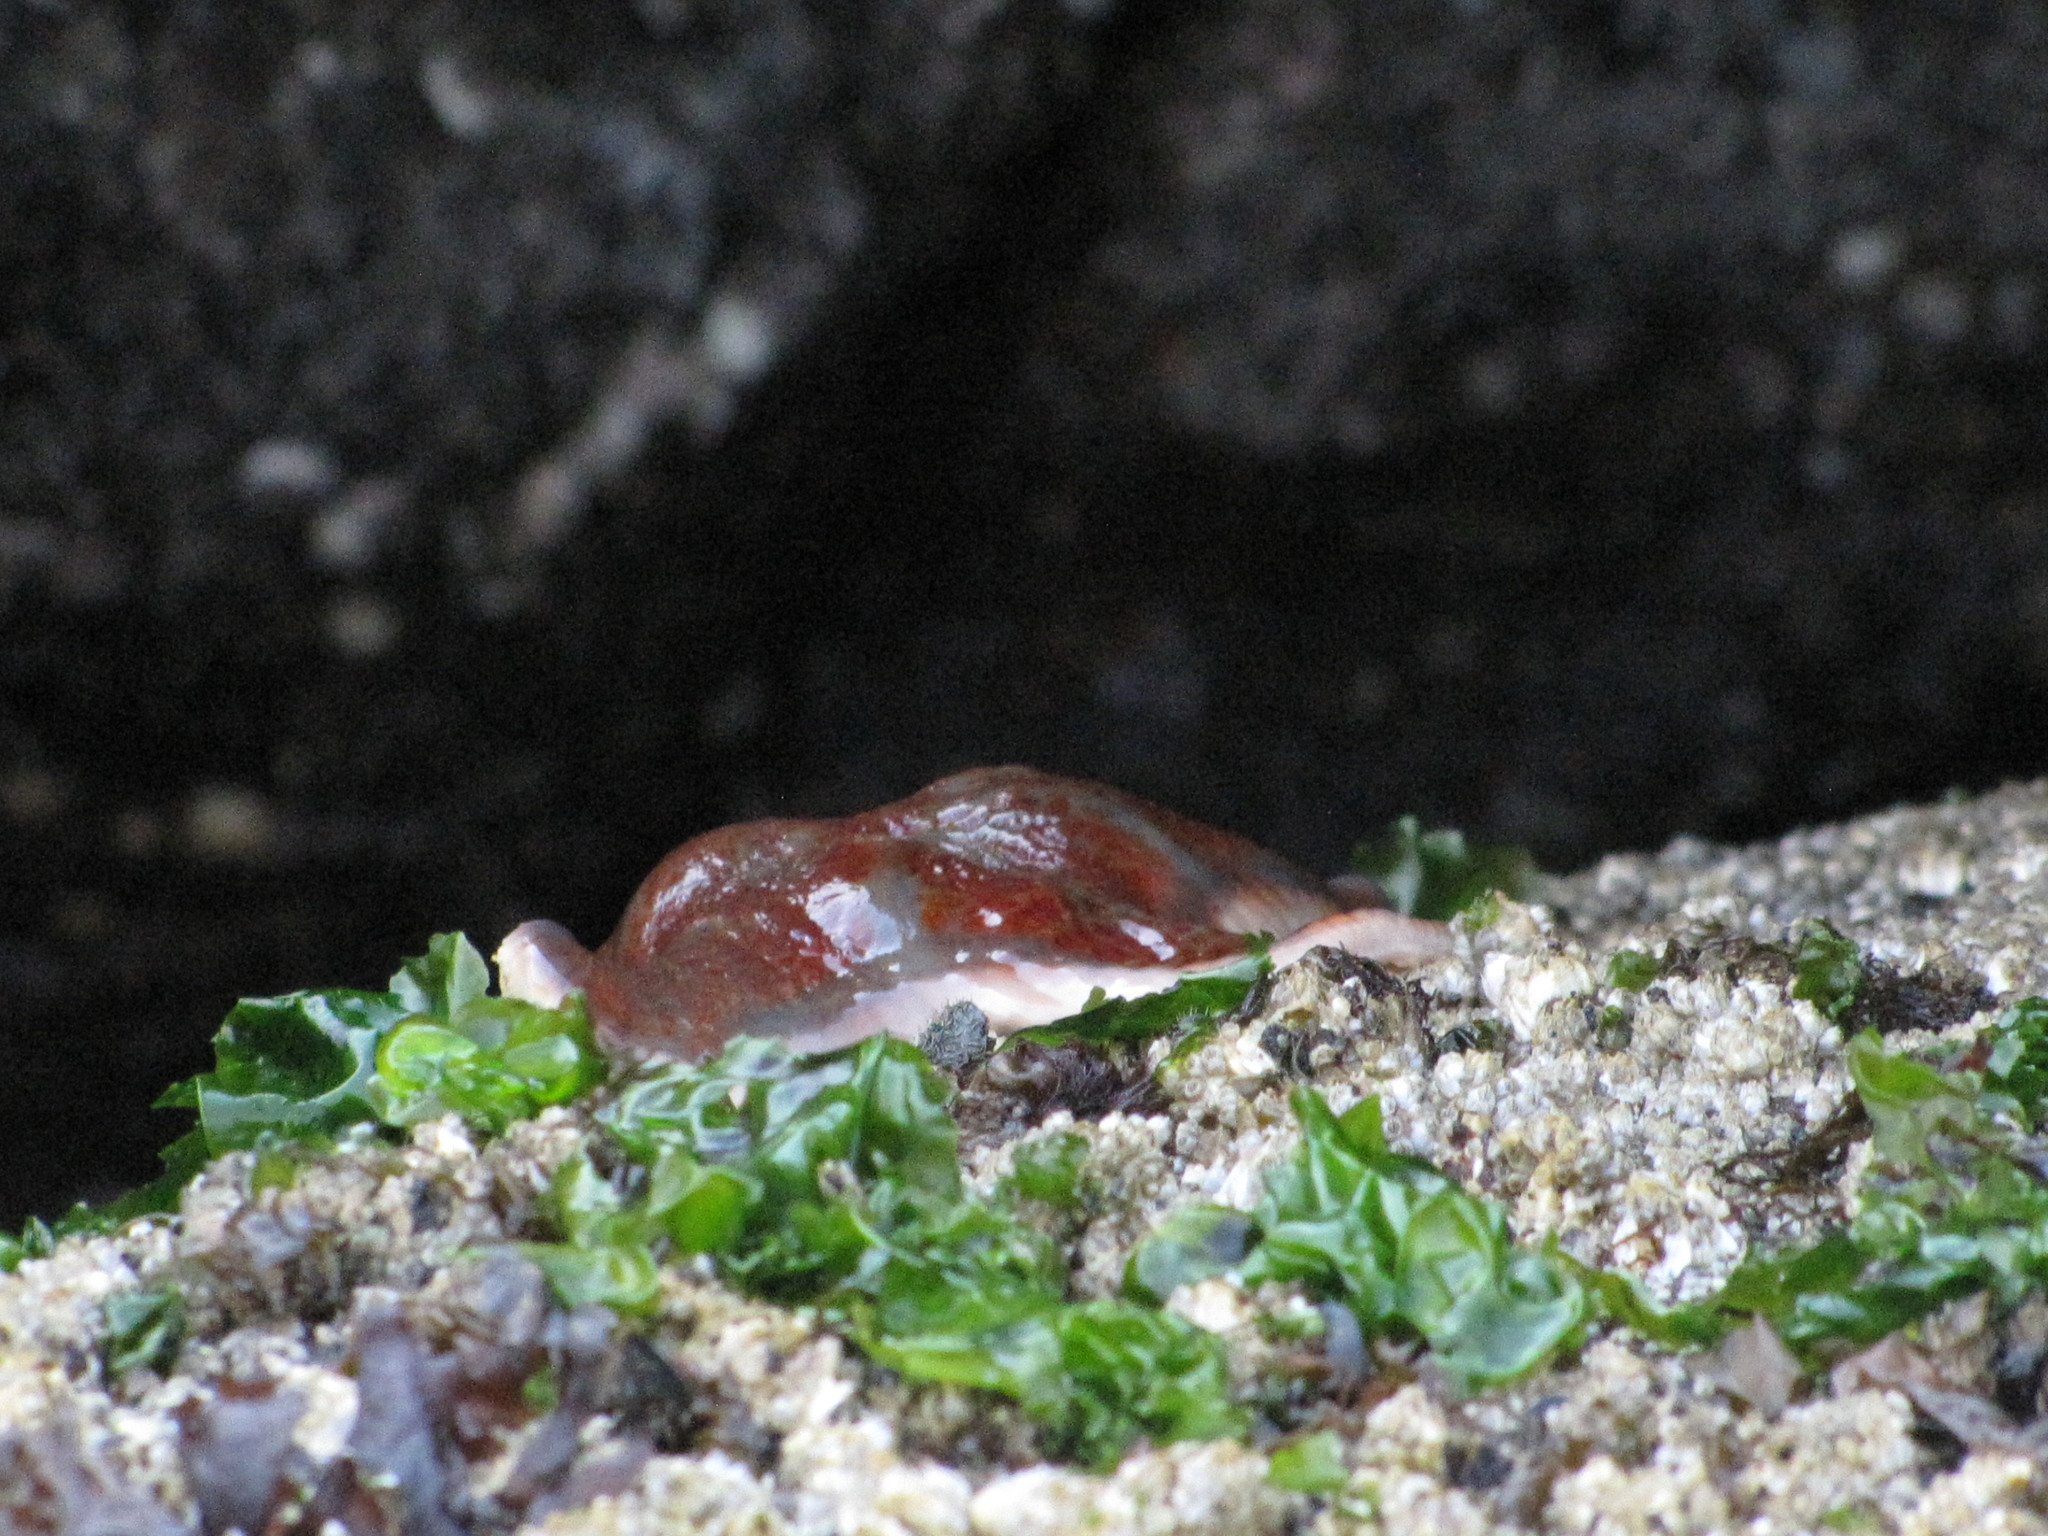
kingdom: Animalia
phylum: Echinodermata
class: Asteroidea
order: Valvatida
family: Asteropseidae
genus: Dermasterias
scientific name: Dermasterias imbricata
